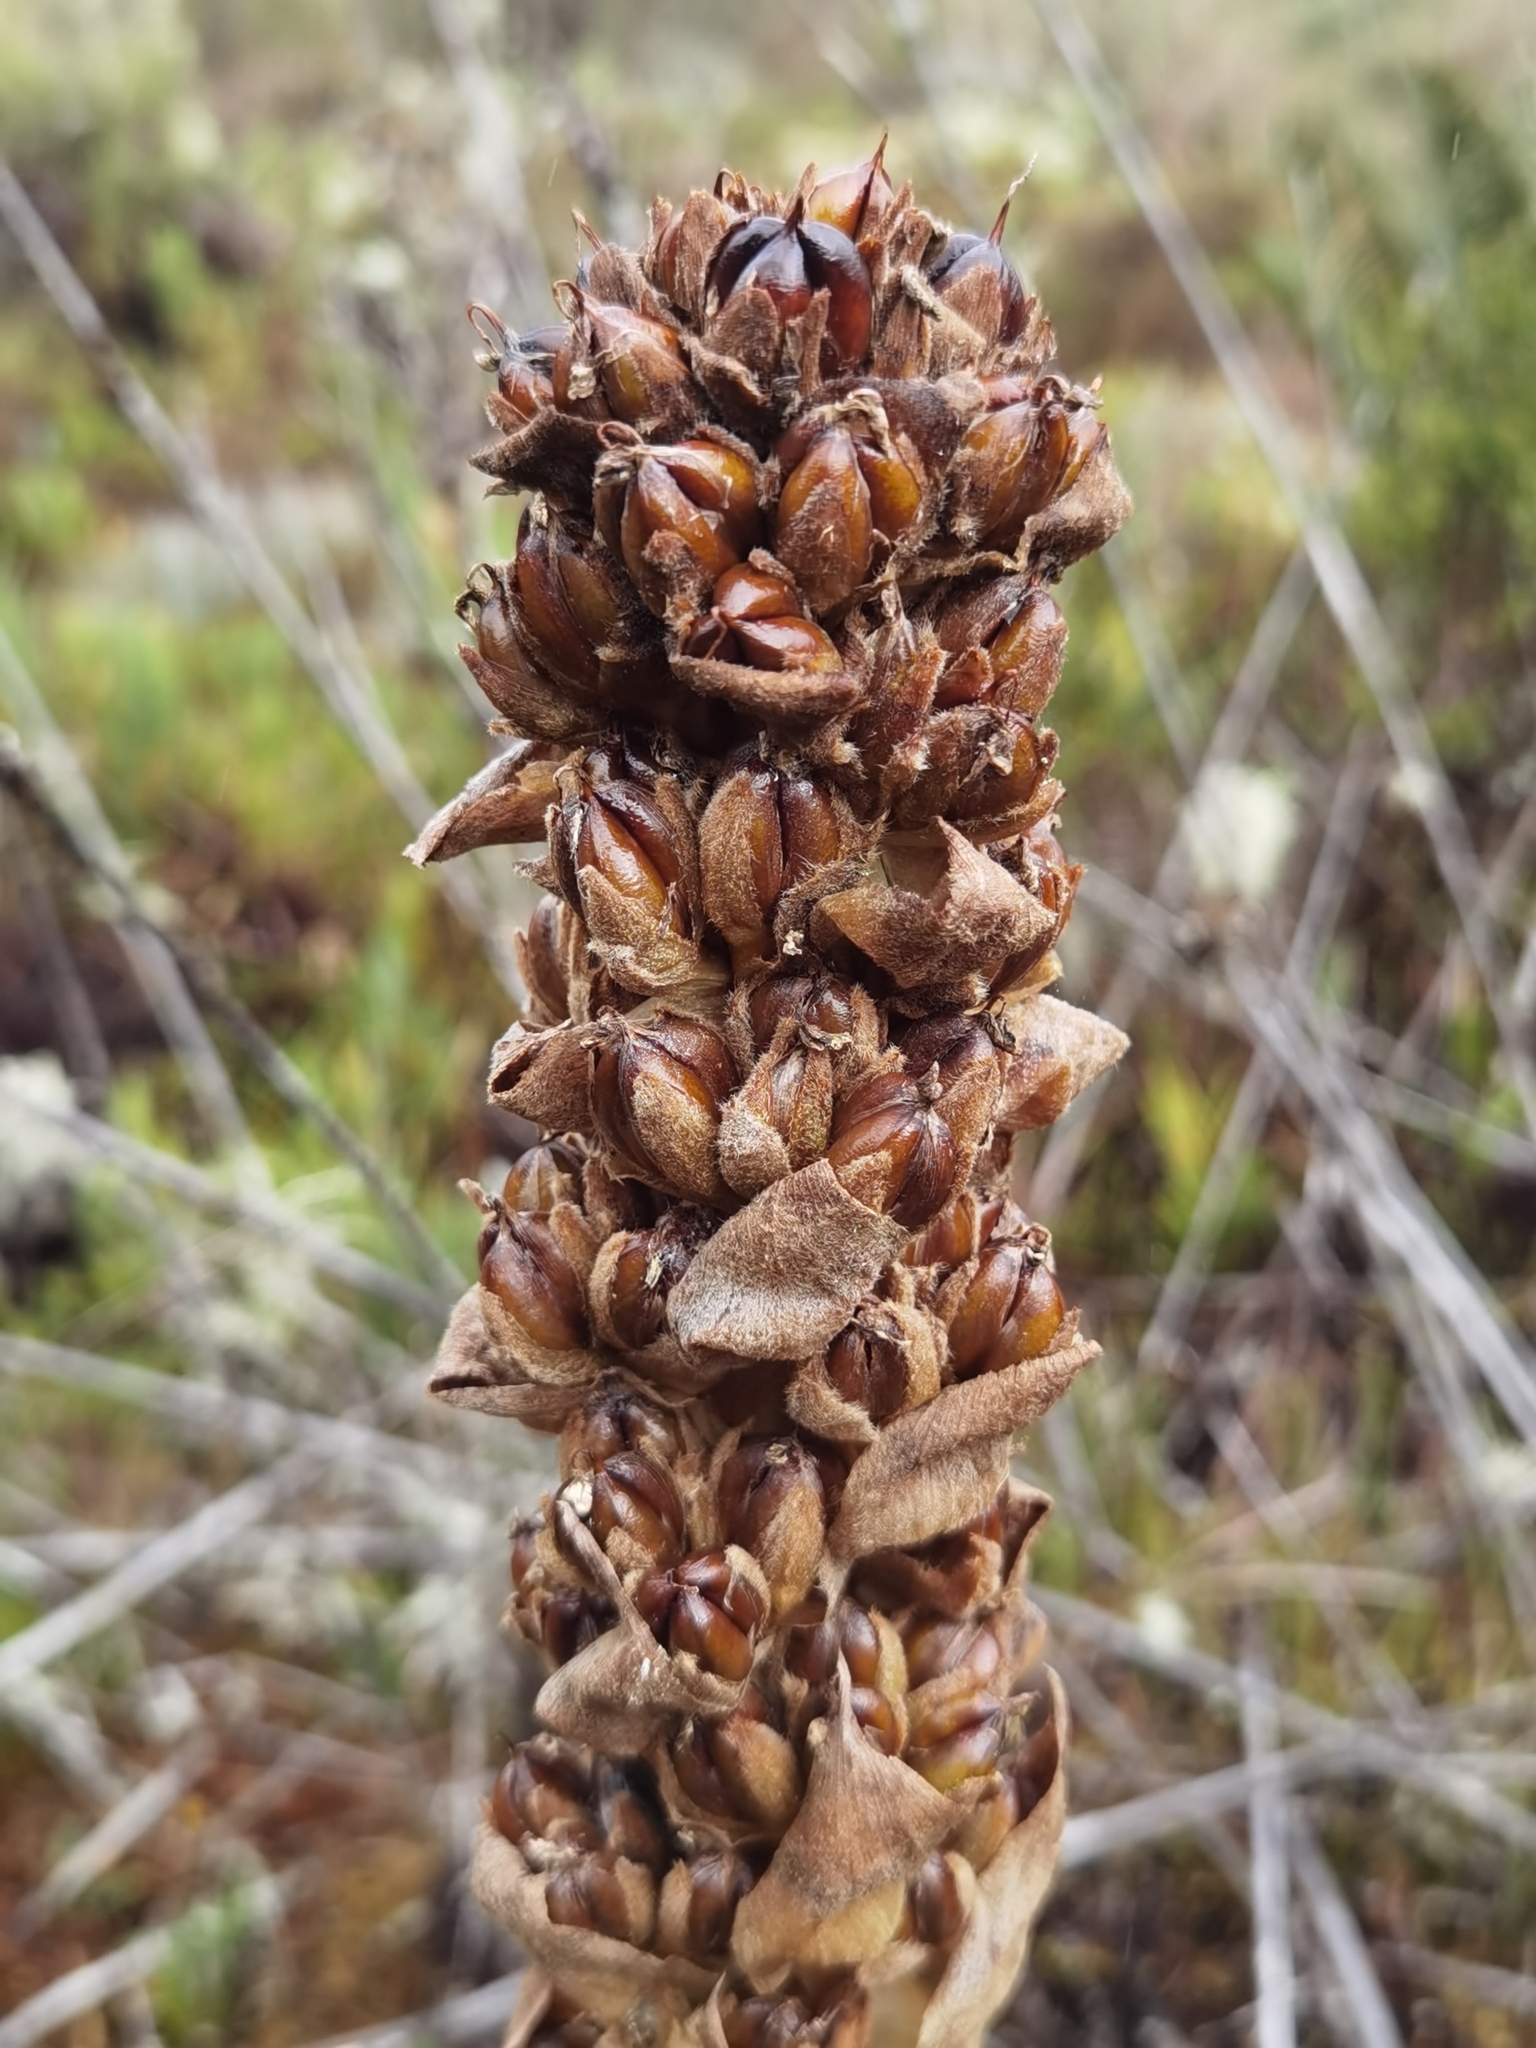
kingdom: Plantae
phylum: Tracheophyta
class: Liliopsida
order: Poales
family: Bromeliaceae
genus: Puya
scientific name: Puya dasylirioides
